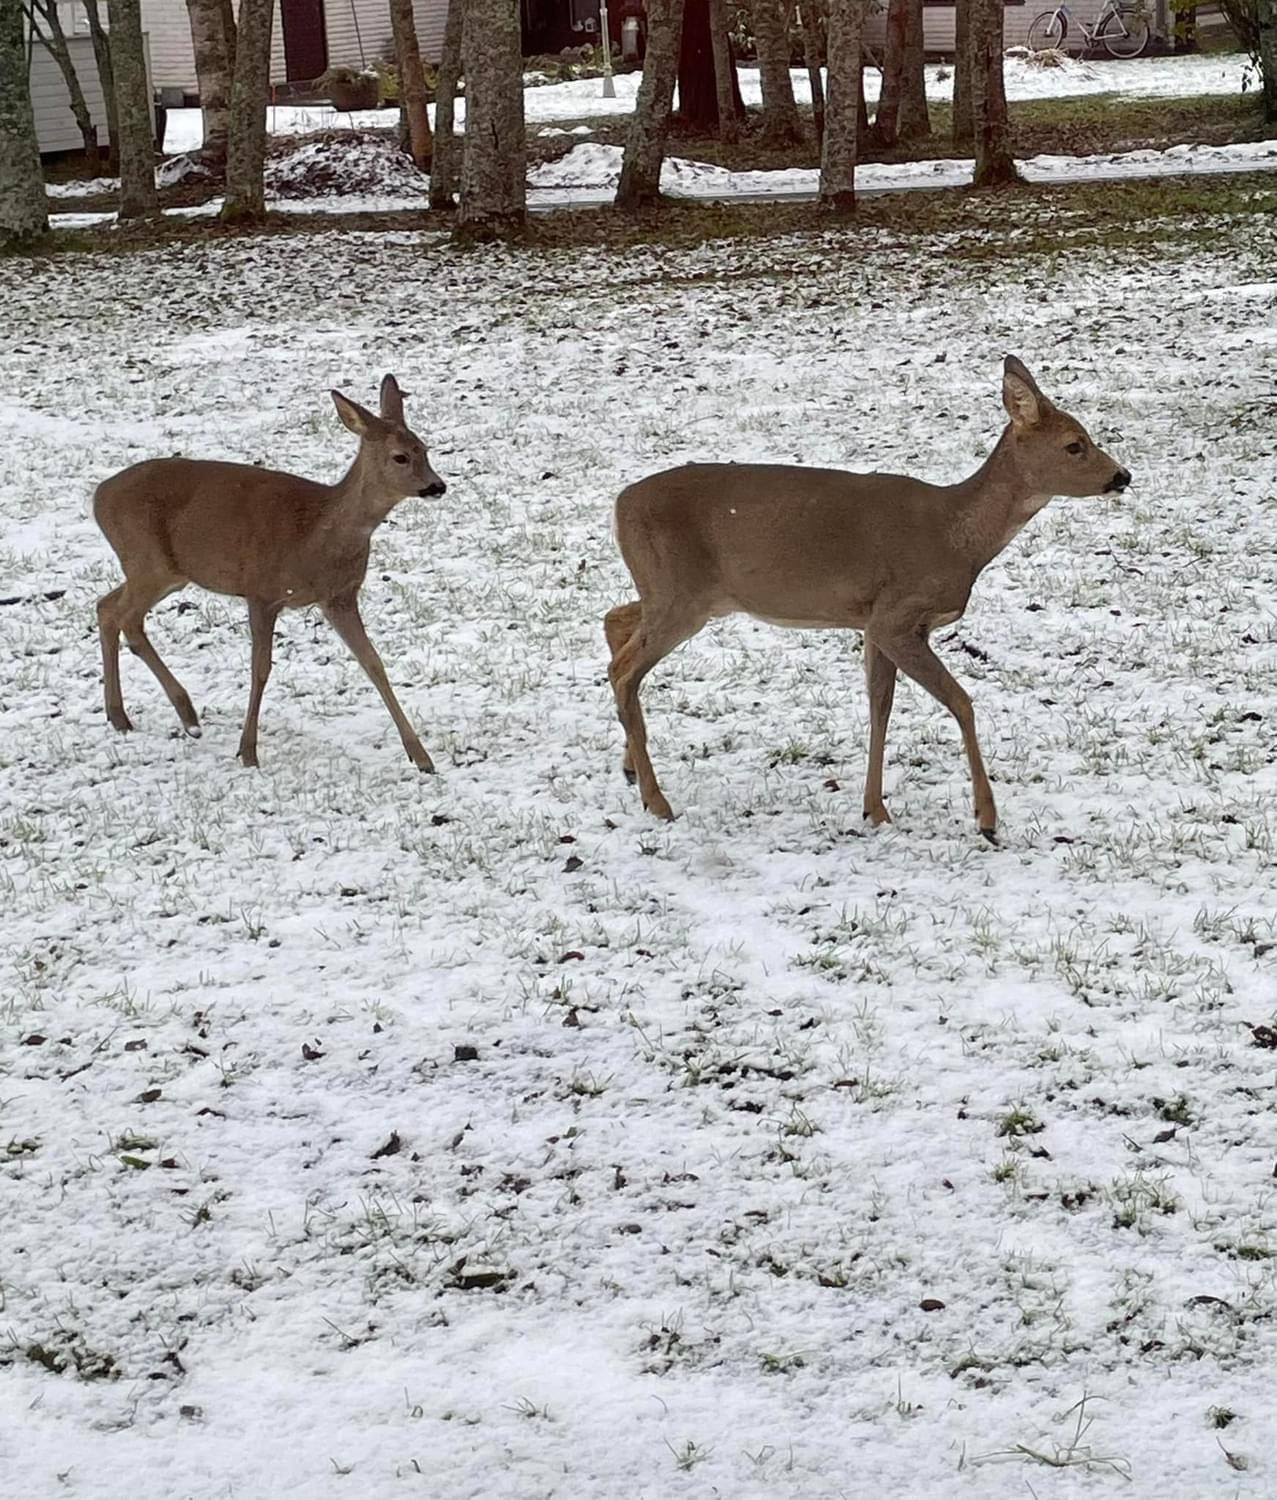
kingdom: Animalia
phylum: Chordata
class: Mammalia
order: Artiodactyla
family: Cervidae
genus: Capreolus
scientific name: Capreolus capreolus
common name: Western roe deer
